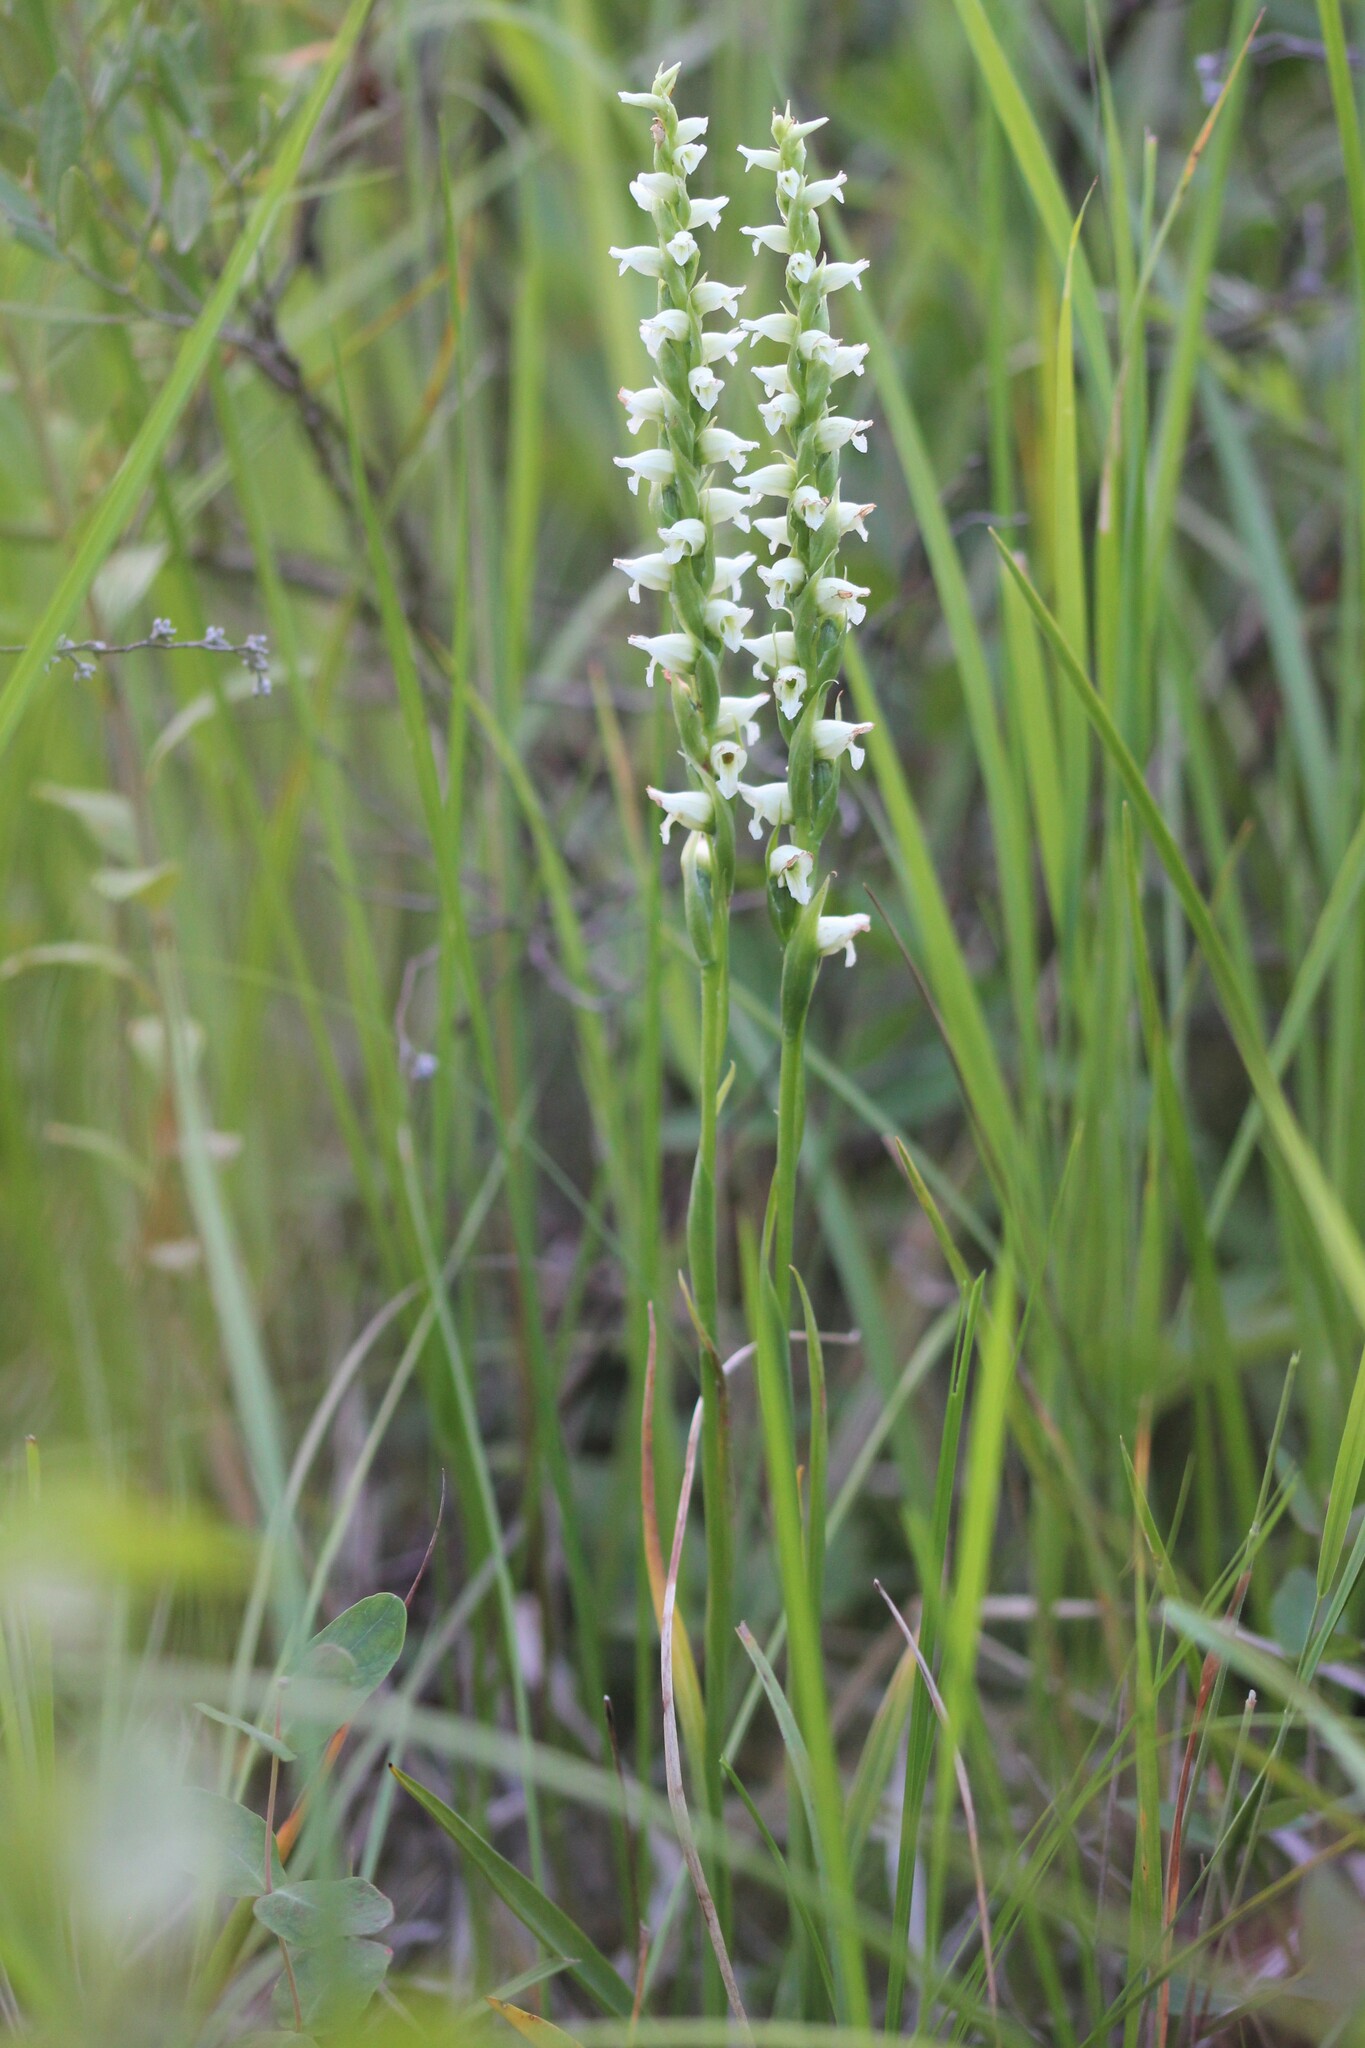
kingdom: Plantae
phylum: Tracheophyta
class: Liliopsida
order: Asparagales
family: Orchidaceae
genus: Spiranthes
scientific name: Spiranthes romanzoffiana
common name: Irish lady's-tresses
